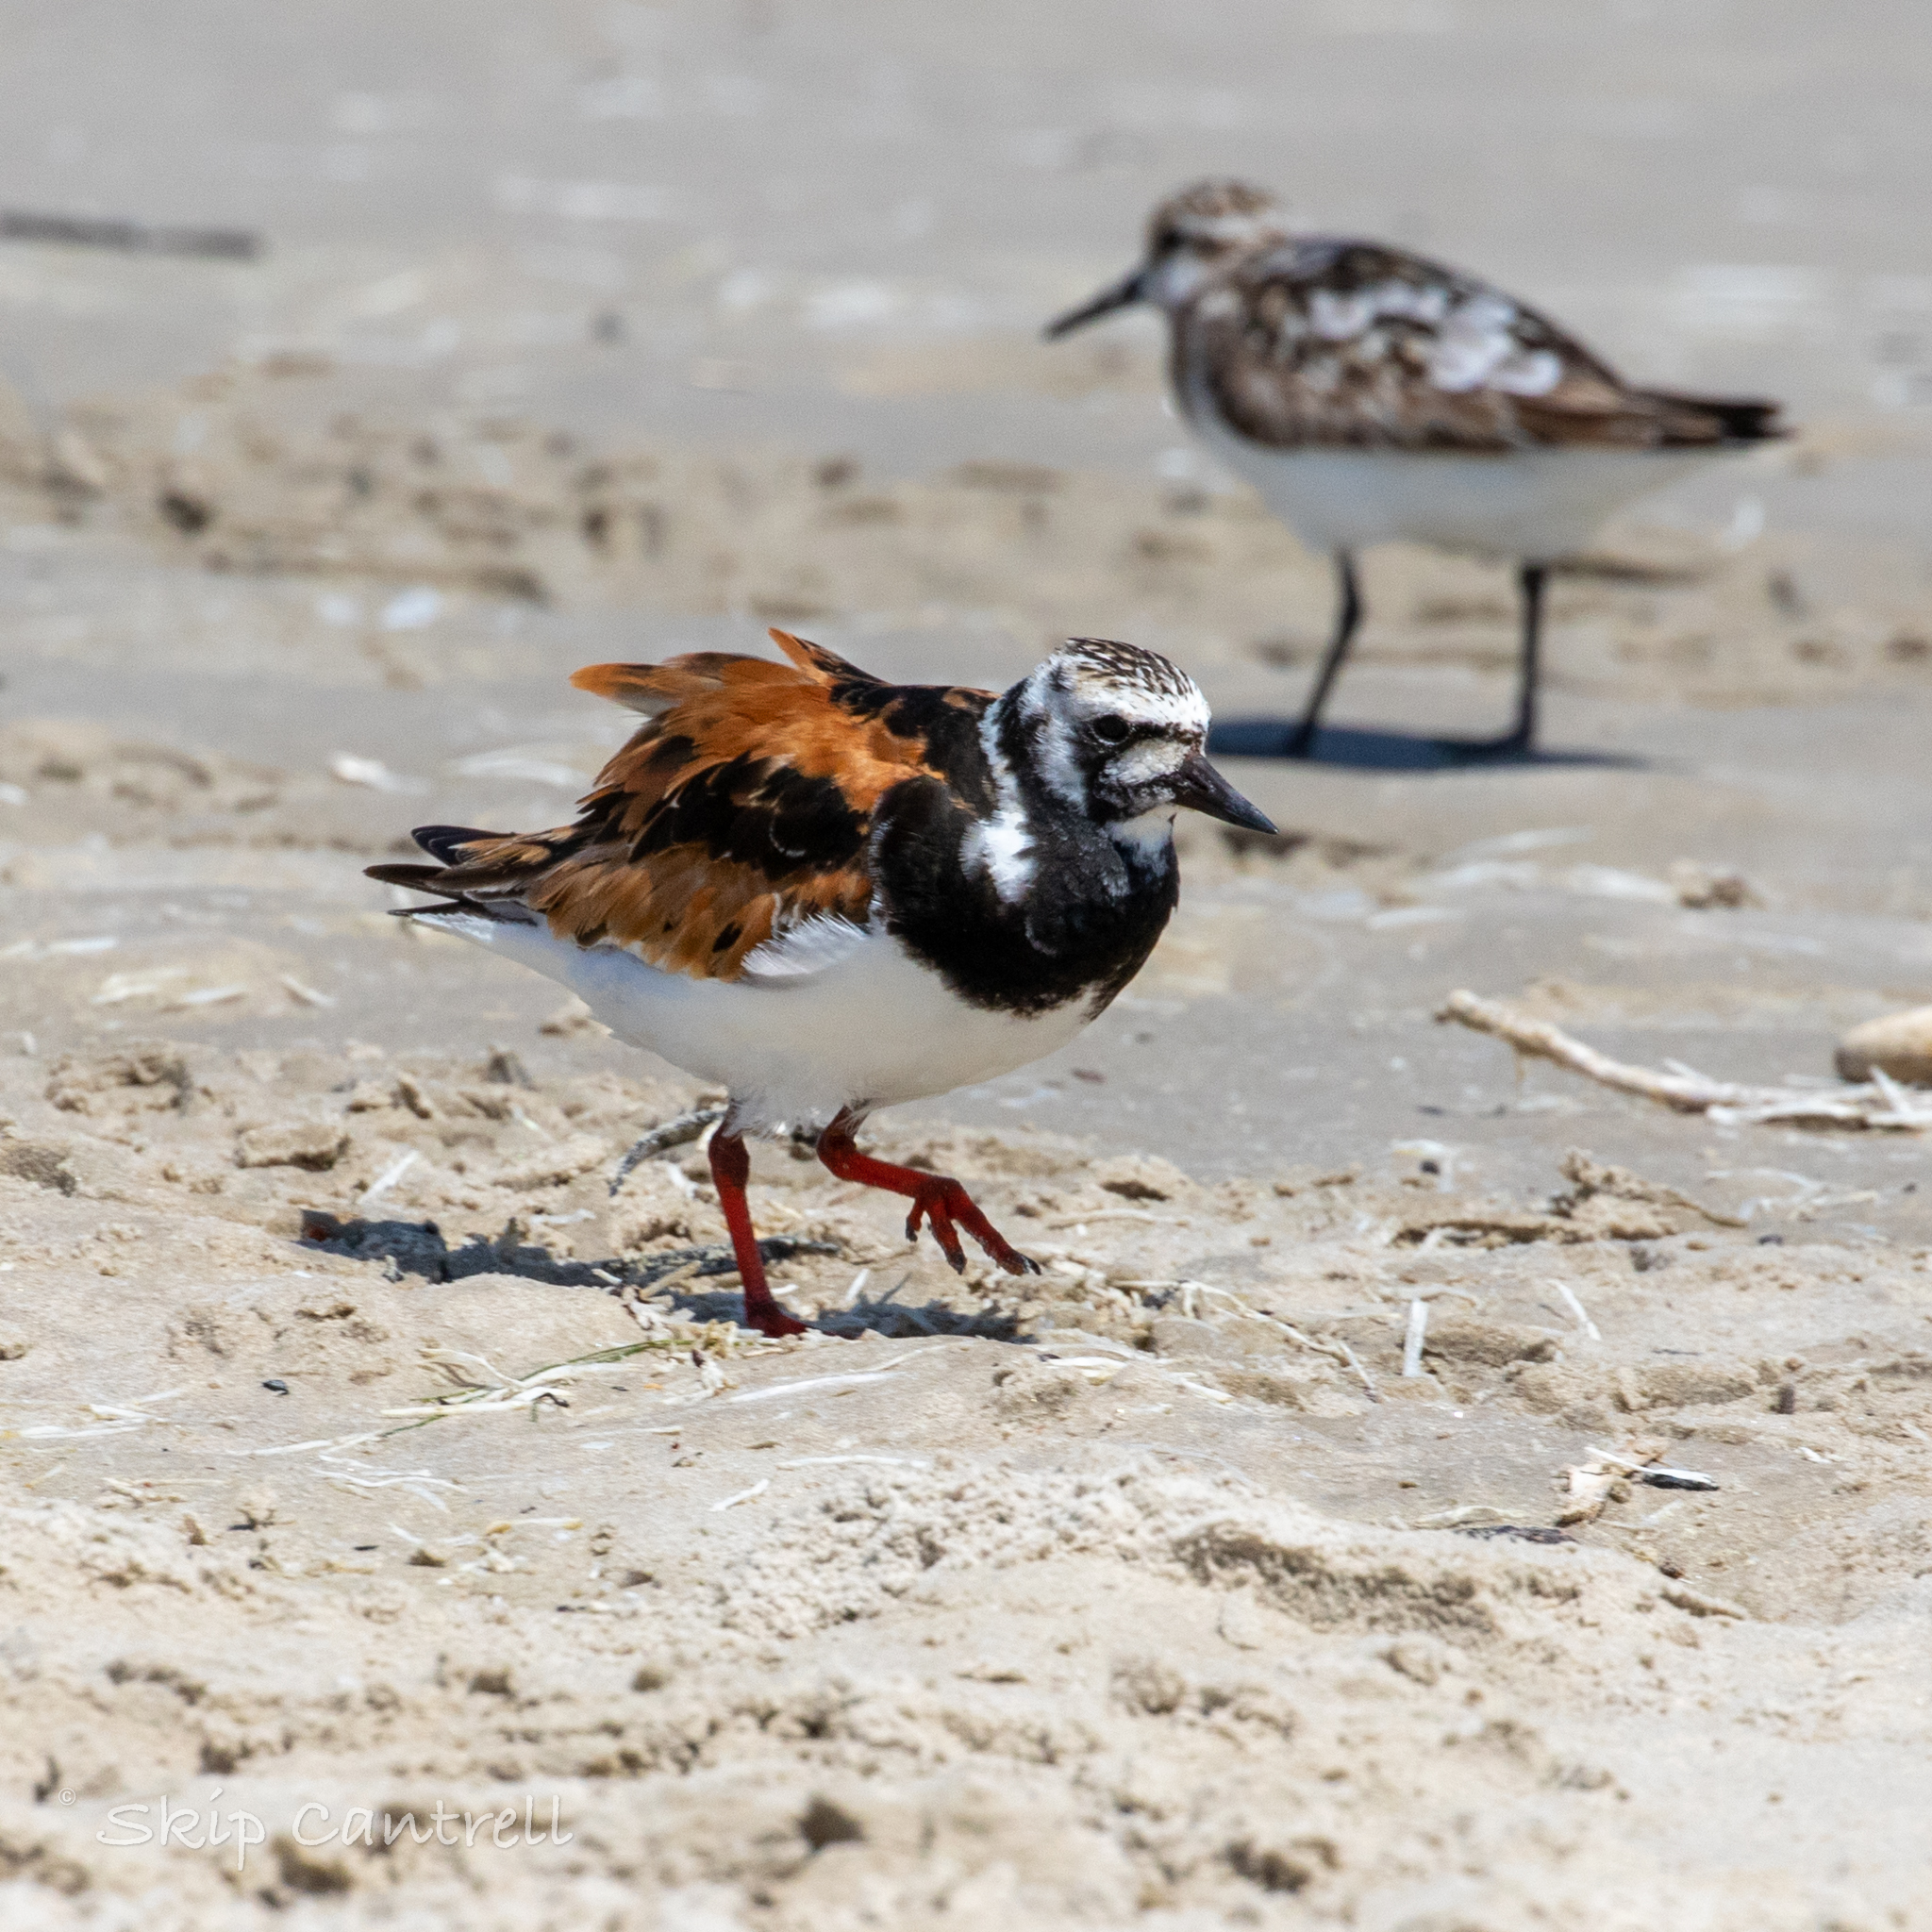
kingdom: Animalia
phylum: Chordata
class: Aves
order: Charadriiformes
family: Scolopacidae
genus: Arenaria
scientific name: Arenaria interpres
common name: Ruddy turnstone
